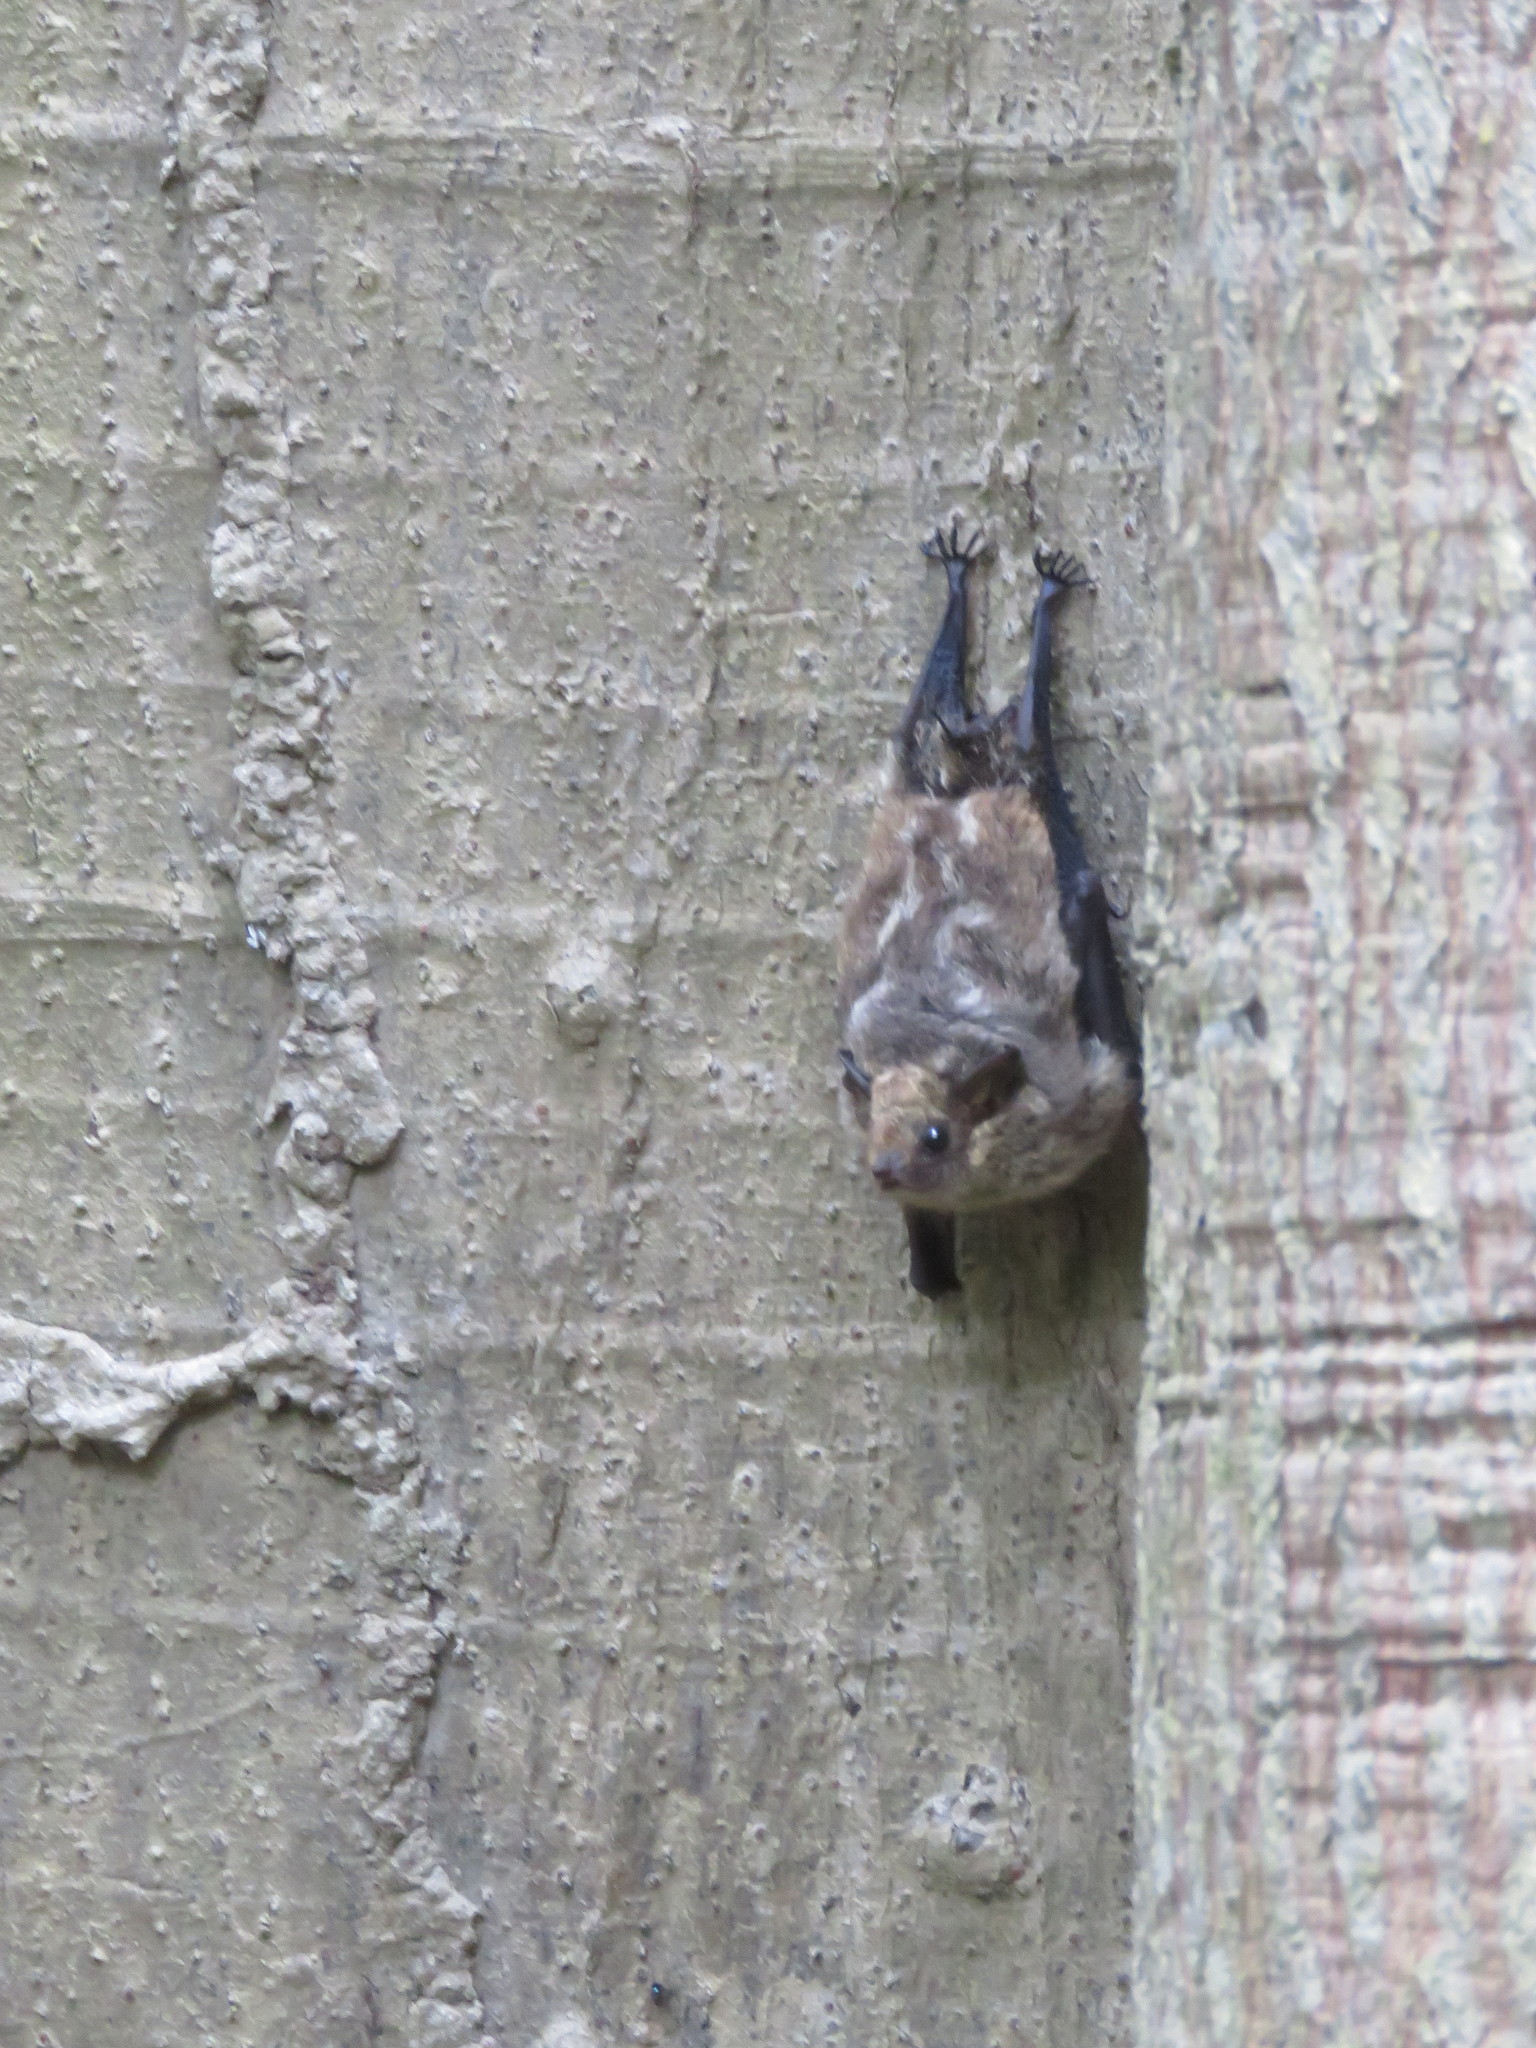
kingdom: Animalia
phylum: Chordata
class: Mammalia
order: Chiroptera
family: Emballonuridae
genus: Saccopteryx
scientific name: Saccopteryx leptura
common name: Lesser sac-winged bat
